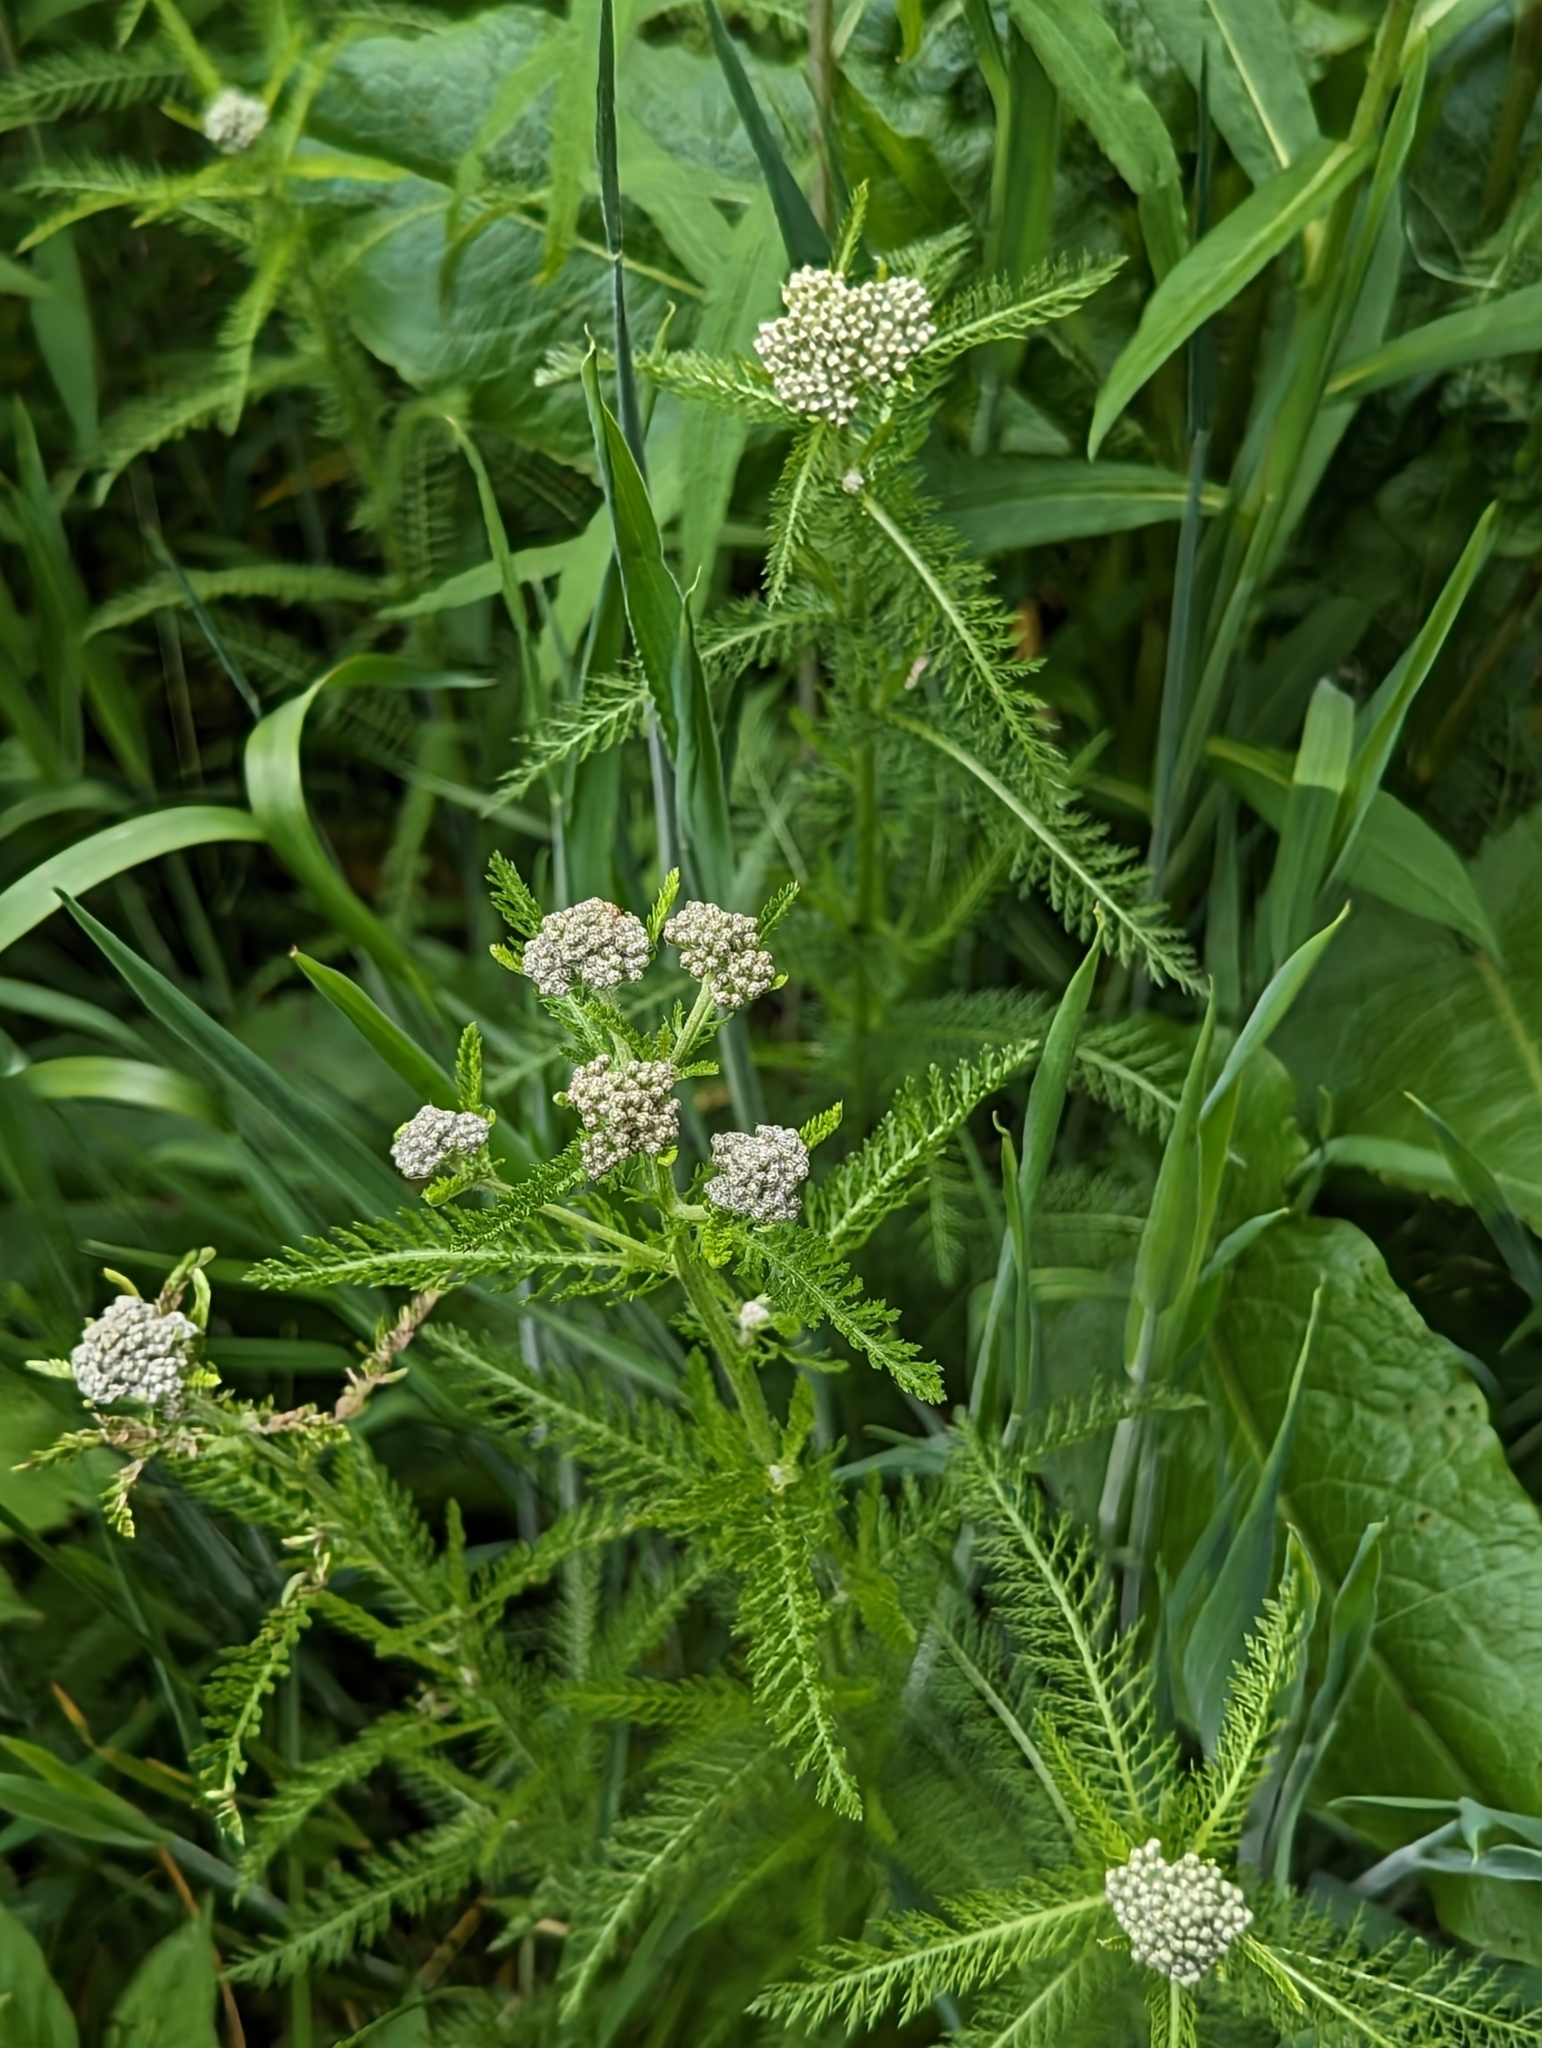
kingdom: Plantae
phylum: Tracheophyta
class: Magnoliopsida
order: Asterales
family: Asteraceae
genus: Achillea
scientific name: Achillea millefolium
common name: Yarrow
